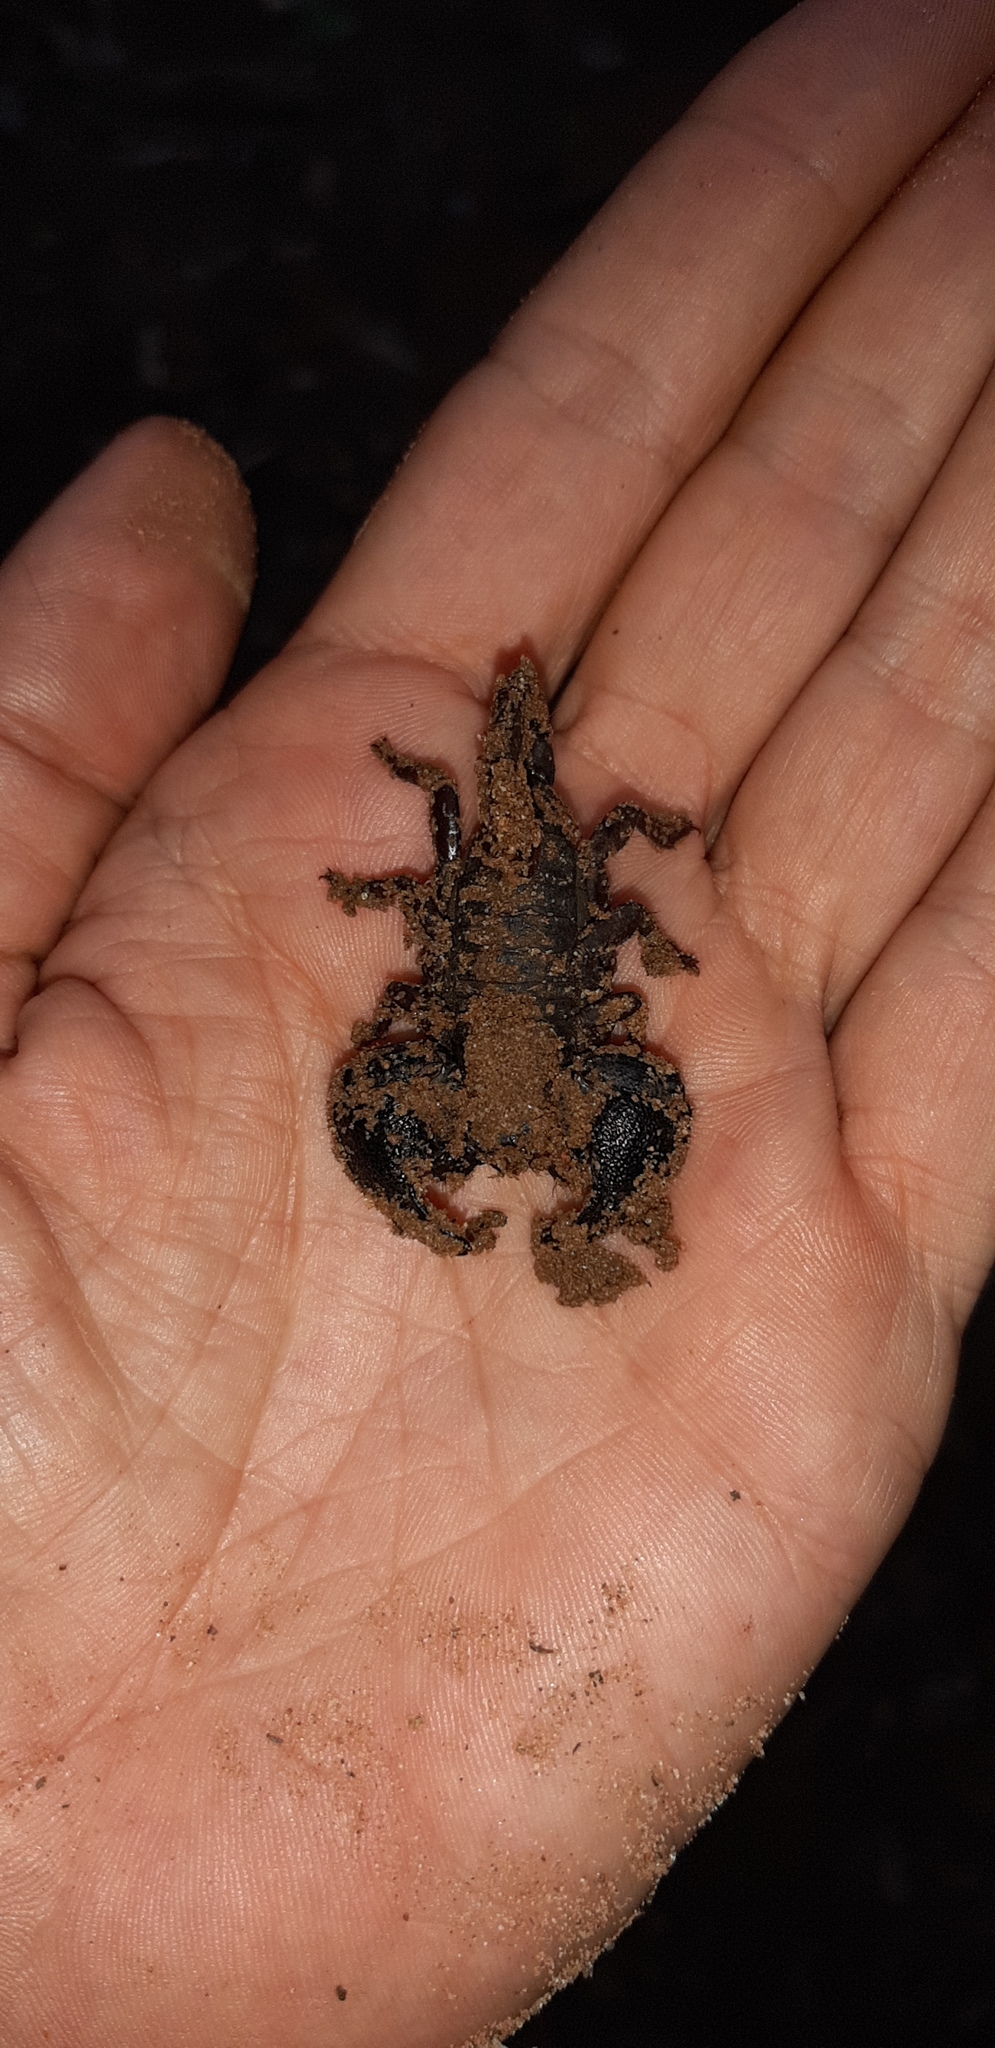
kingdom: Animalia
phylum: Arthropoda
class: Arachnida
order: Scorpiones
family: Hormuridae
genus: Cheloctonus
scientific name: Cheloctonus jonesii
